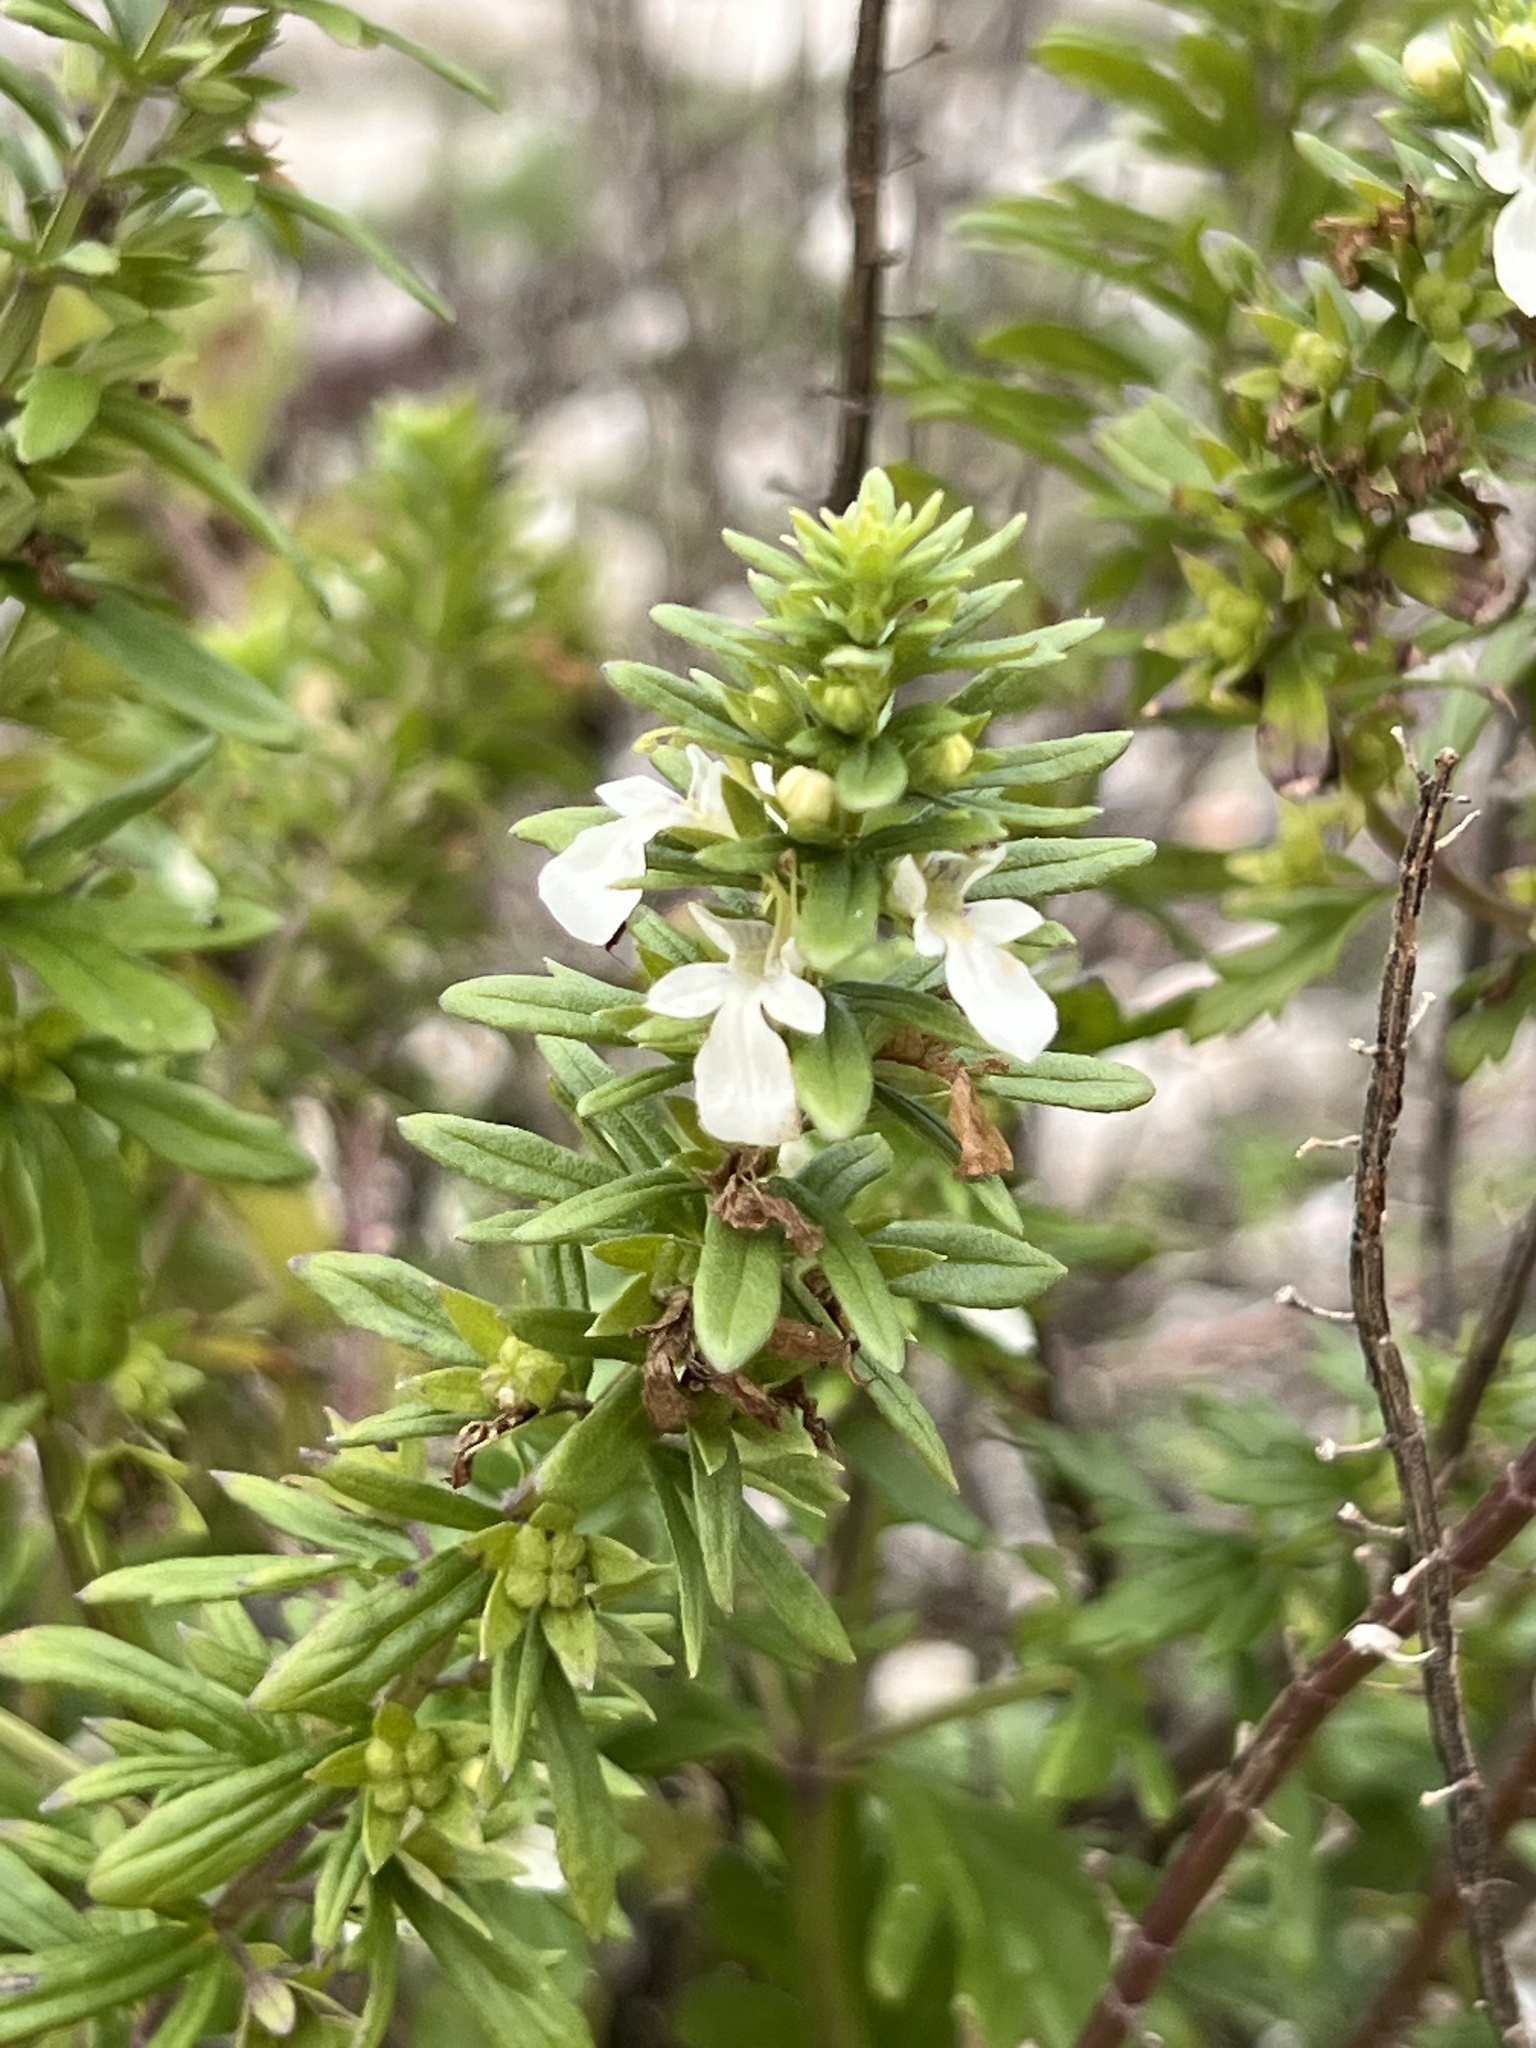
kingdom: Plantae
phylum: Tracheophyta
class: Magnoliopsida
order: Lamiales
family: Lamiaceae
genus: Teucrium
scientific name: Teucrium cubense
